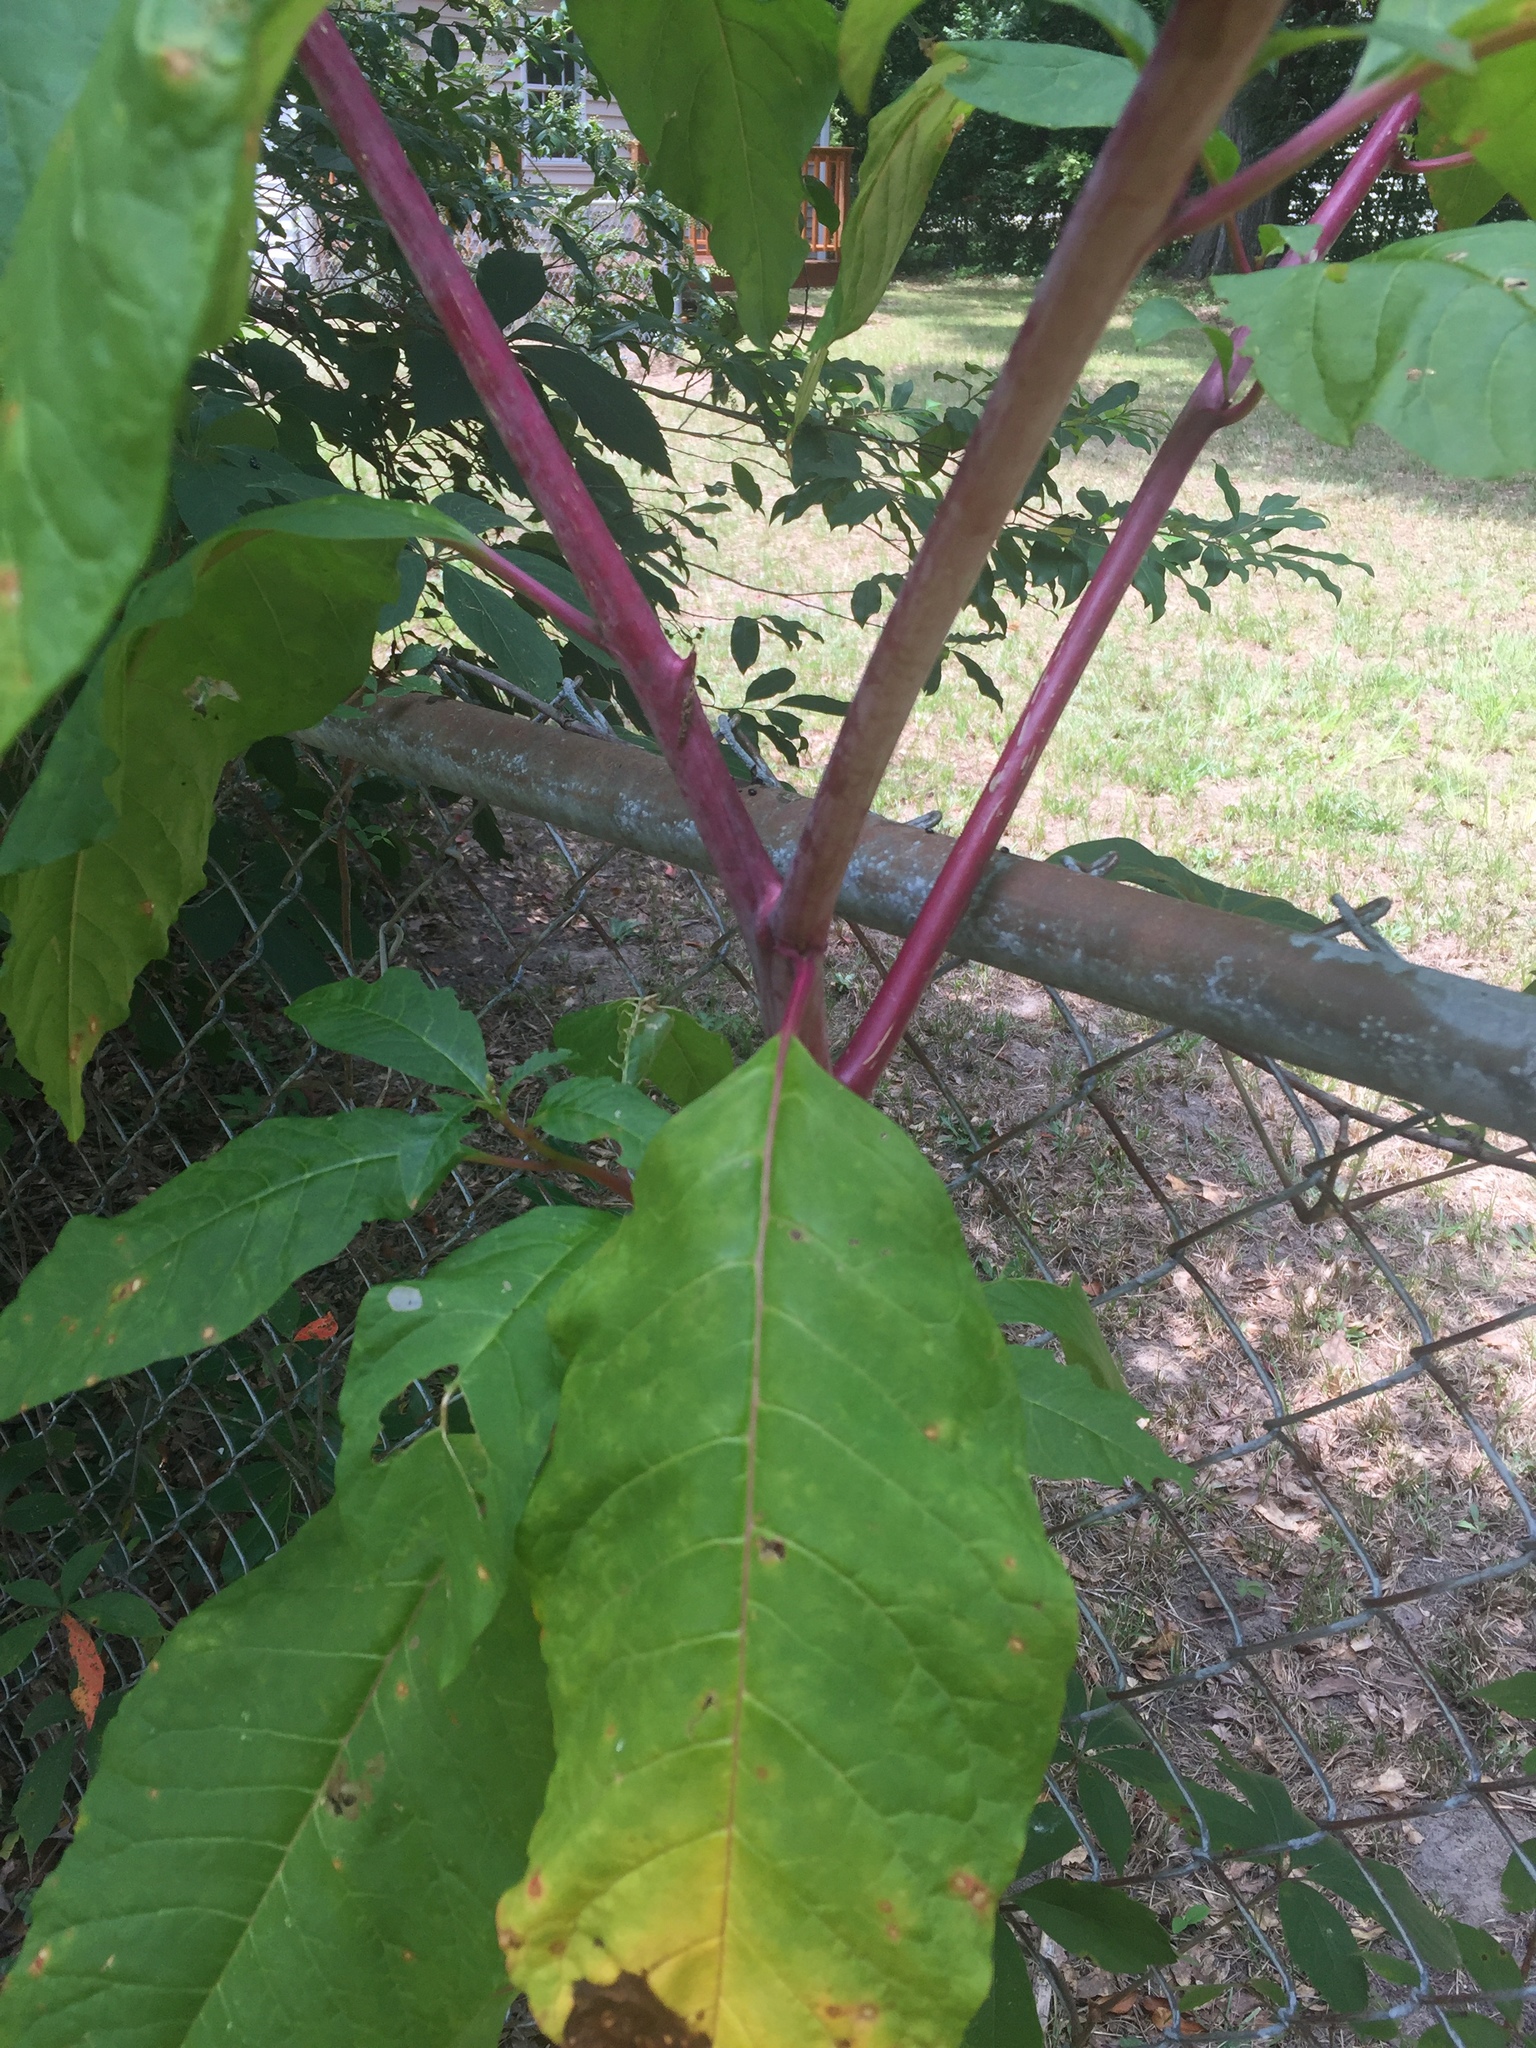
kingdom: Plantae
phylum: Tracheophyta
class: Magnoliopsida
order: Caryophyllales
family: Phytolaccaceae
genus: Phytolacca
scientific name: Phytolacca americana
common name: American pokeweed
